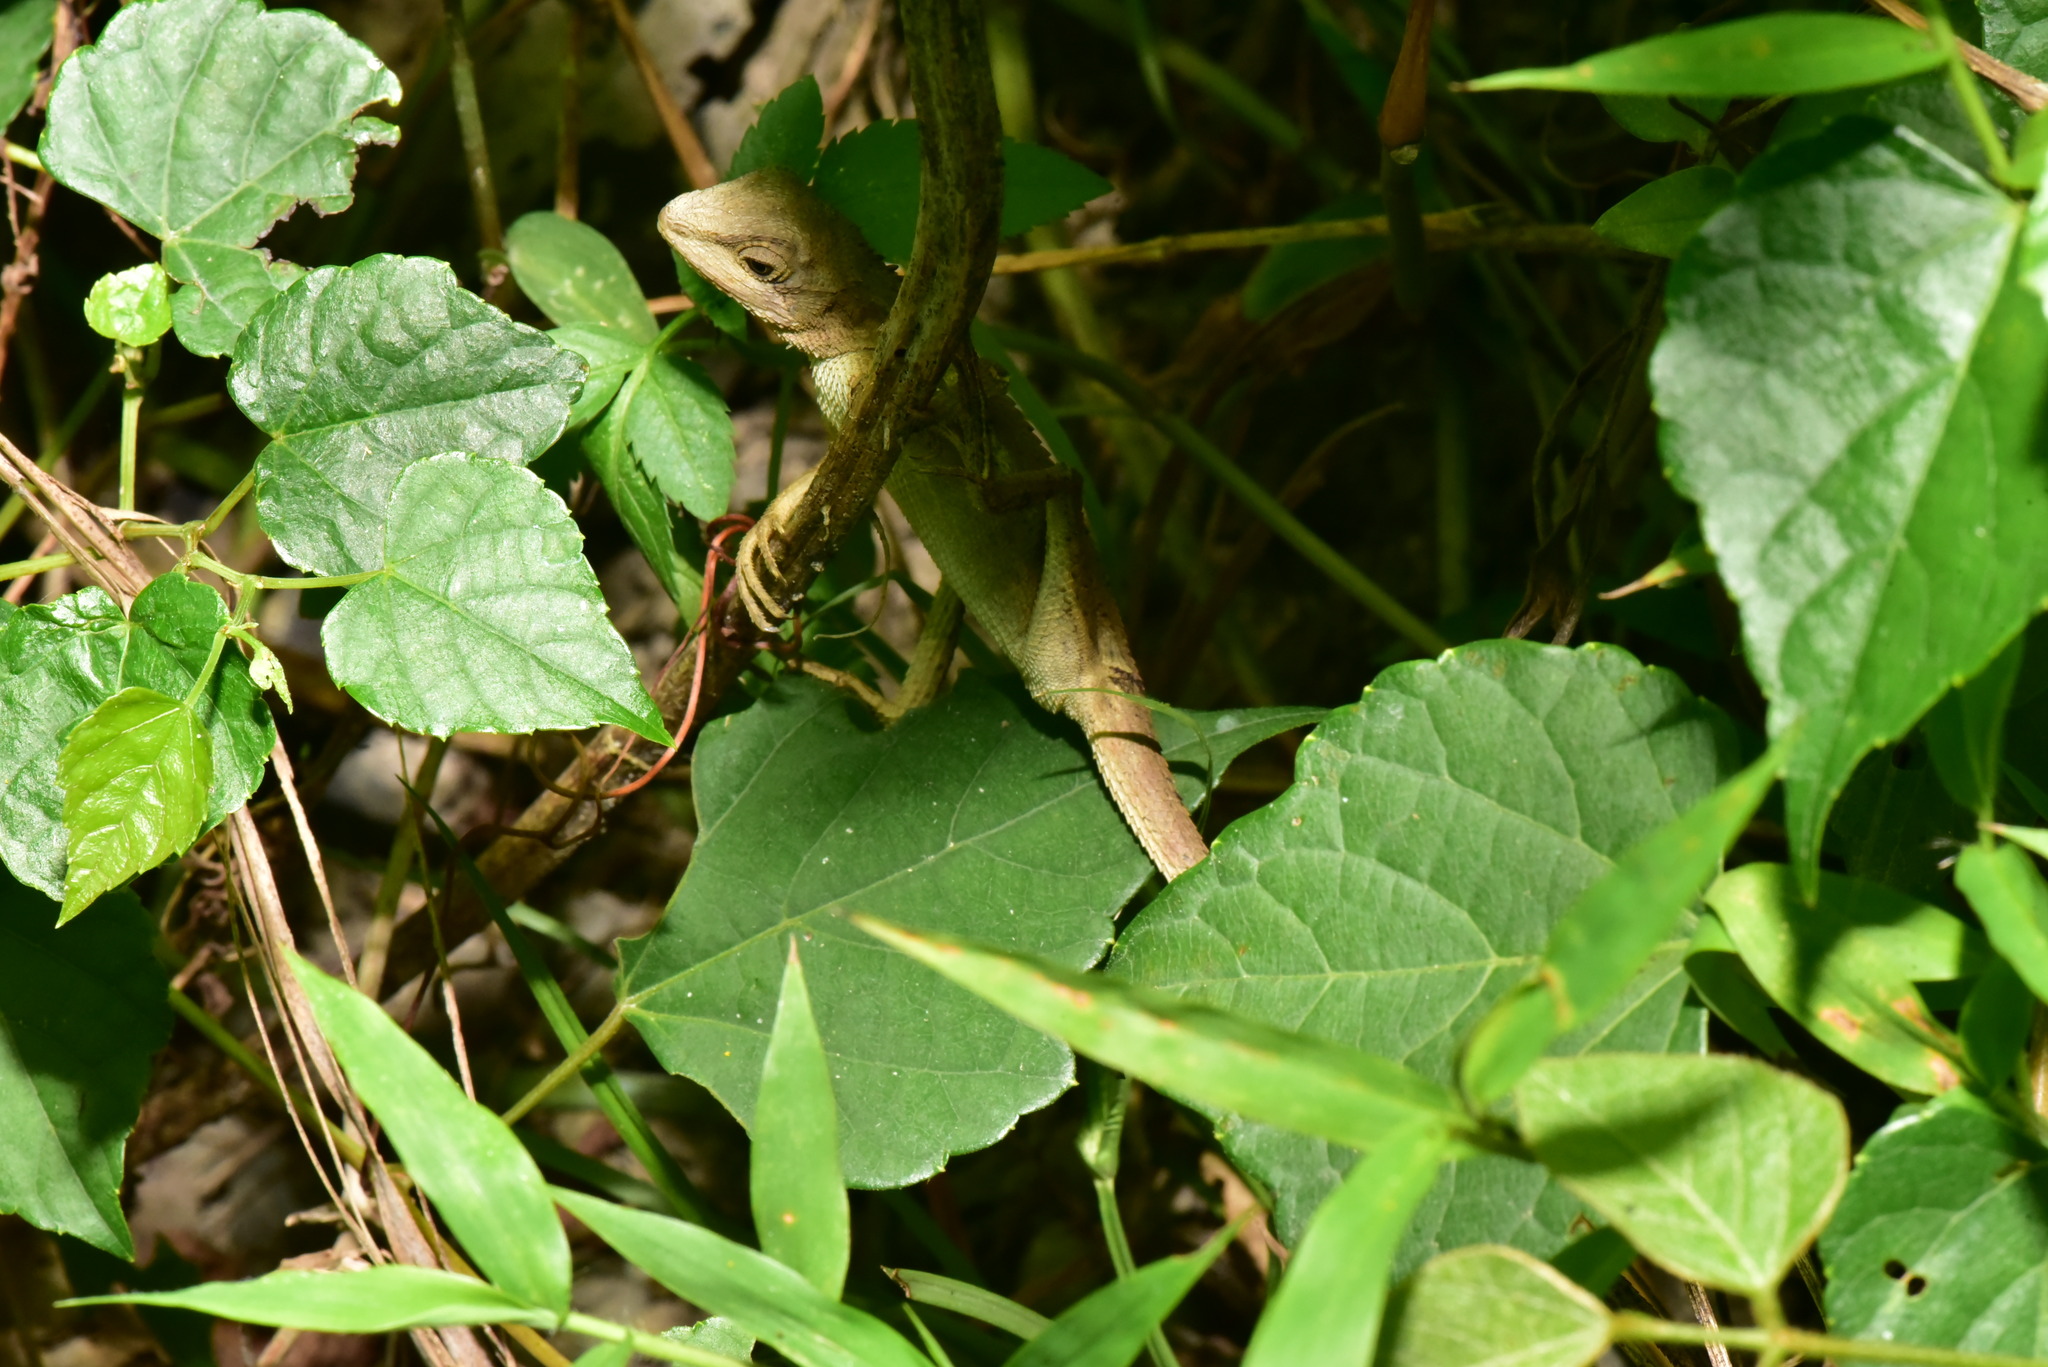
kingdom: Animalia
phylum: Chordata
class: Squamata
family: Agamidae
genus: Diploderma
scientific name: Diploderma swinhonis
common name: Taiwan japalure
